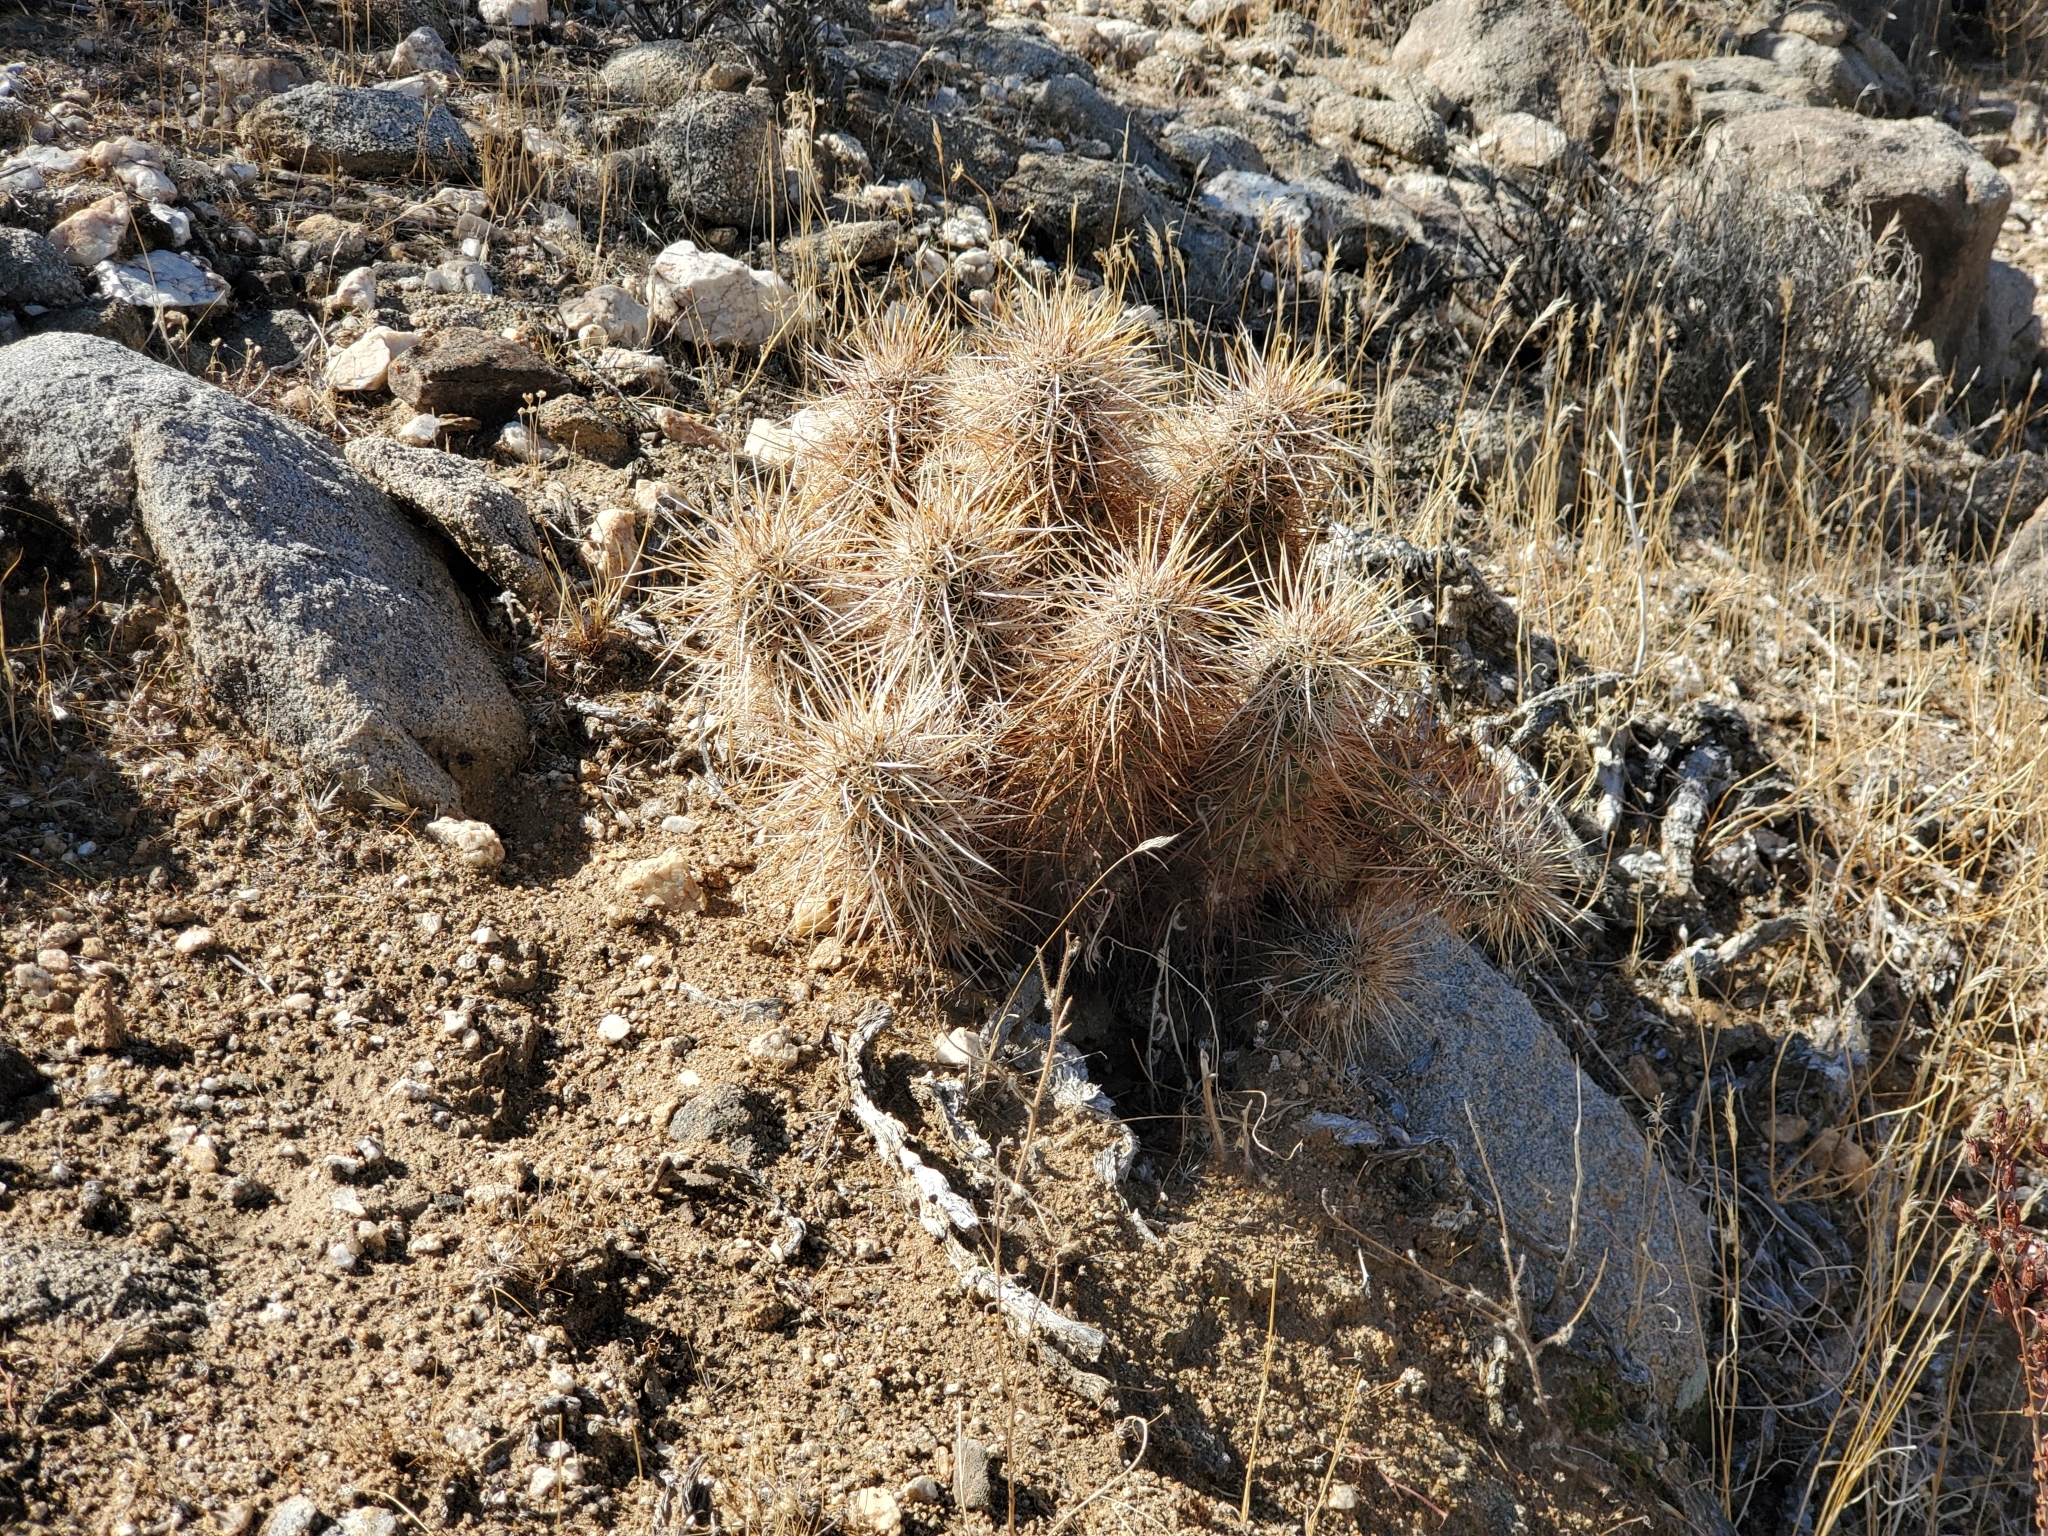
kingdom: Plantae
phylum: Tracheophyta
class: Magnoliopsida
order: Caryophyllales
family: Cactaceae
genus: Echinocereus
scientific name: Echinocereus engelmannii
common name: Engelmann's hedgehog cactus
